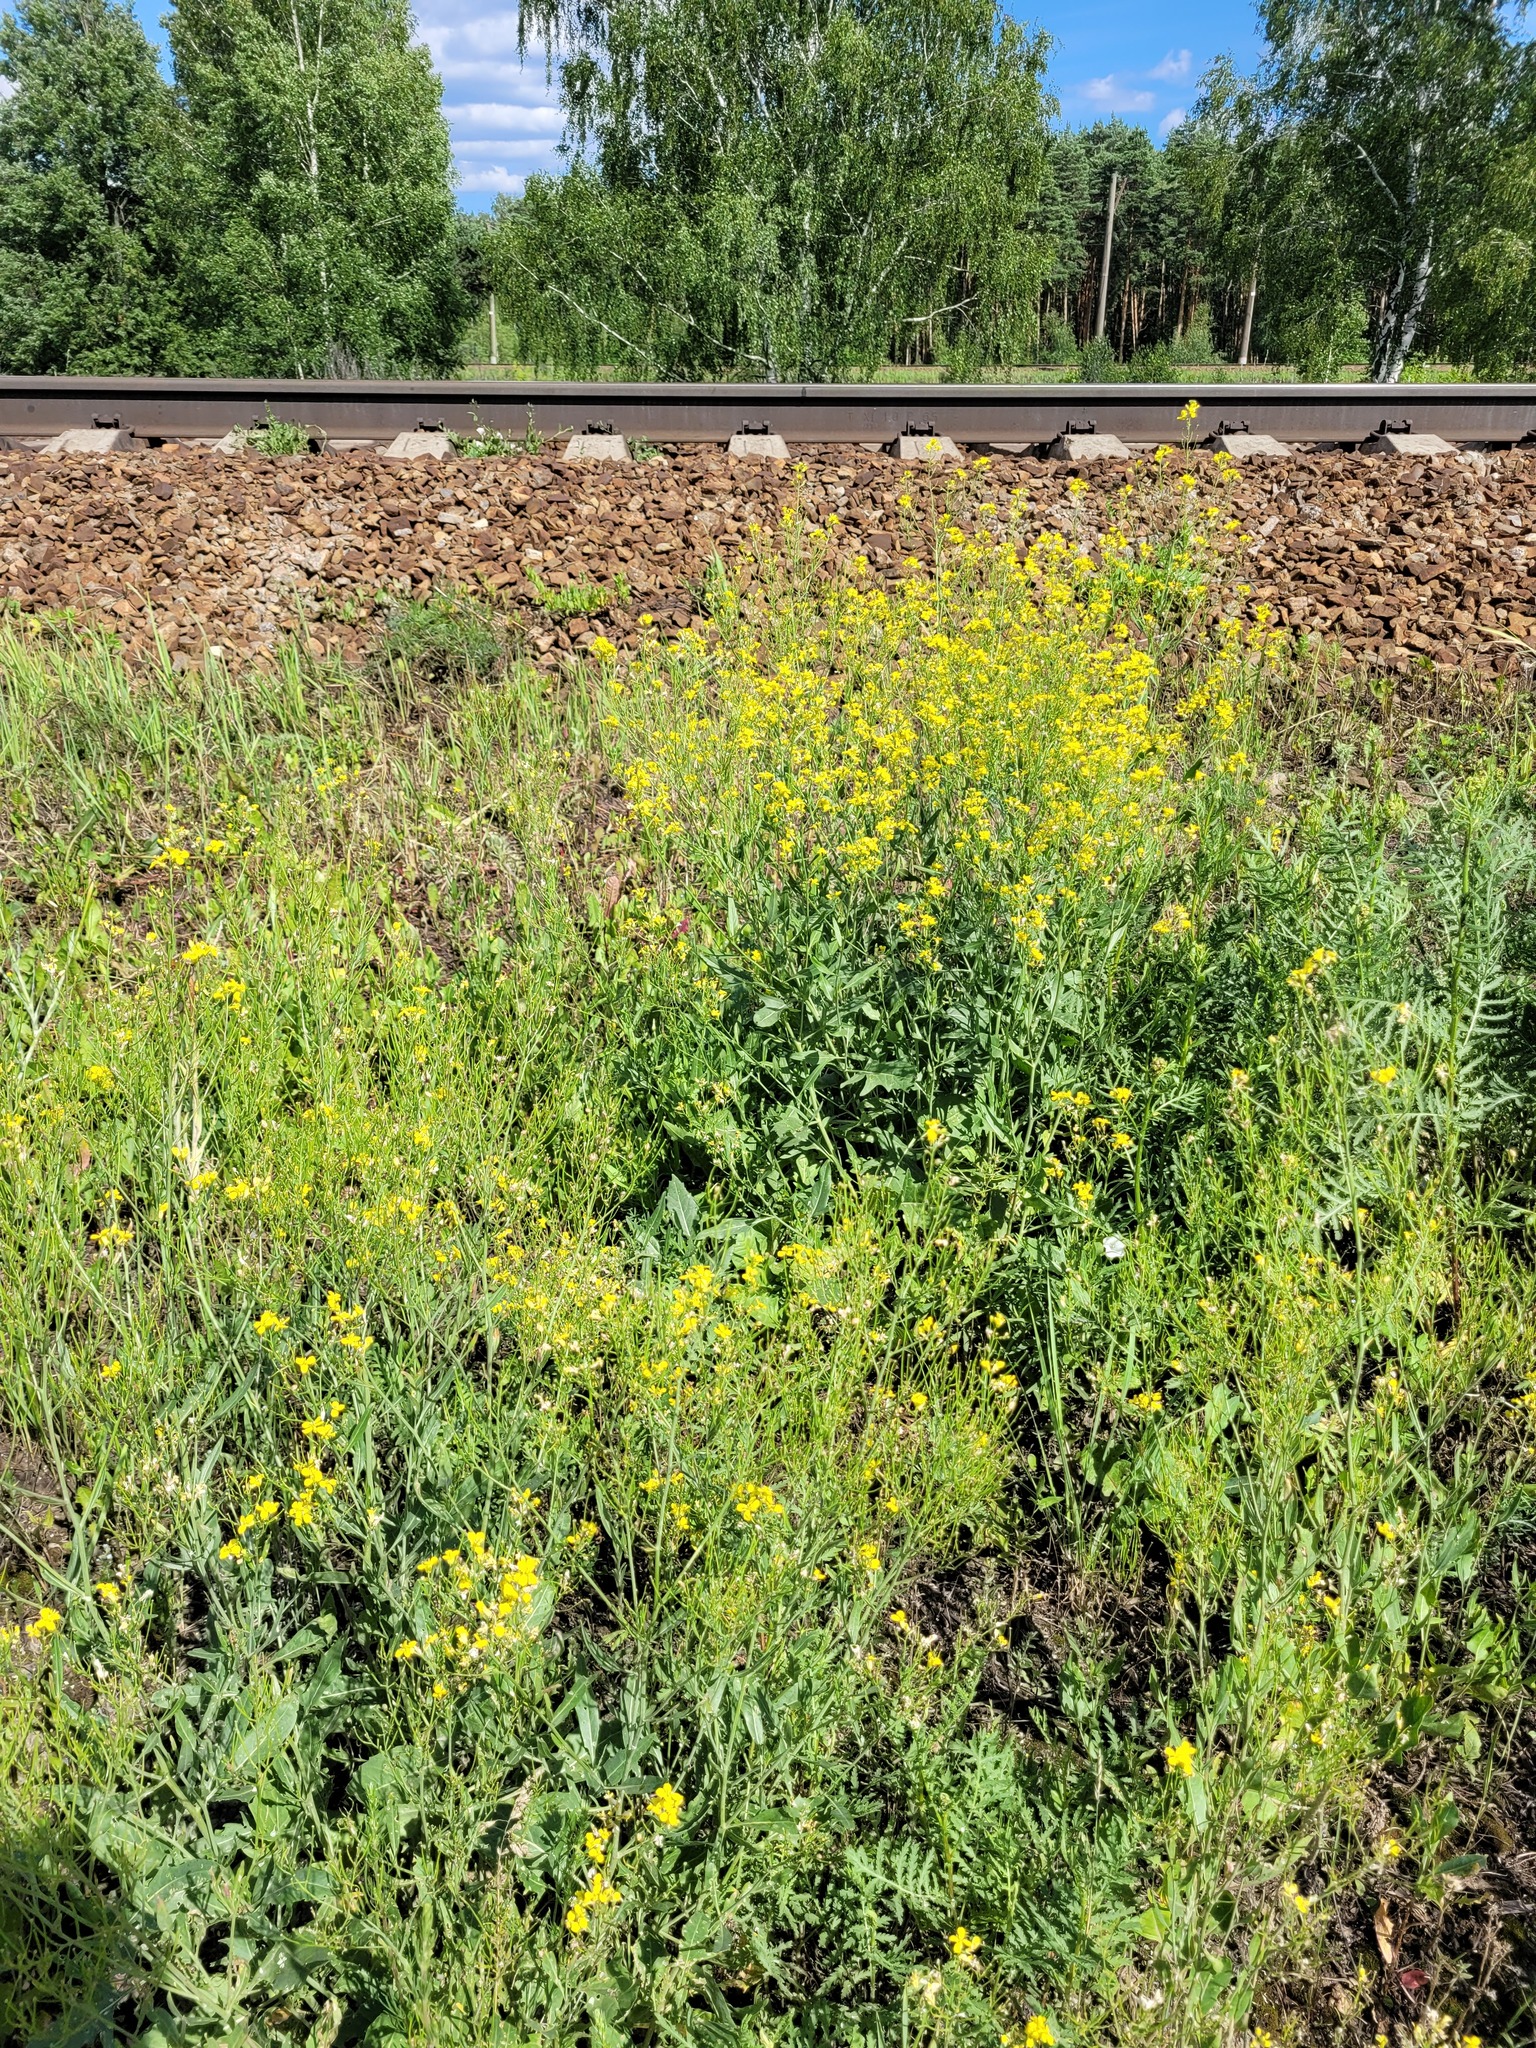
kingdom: Plantae
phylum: Tracheophyta
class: Magnoliopsida
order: Brassicales
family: Brassicaceae
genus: Sisymbrium
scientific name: Sisymbrium volgense
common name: Russian mustard
